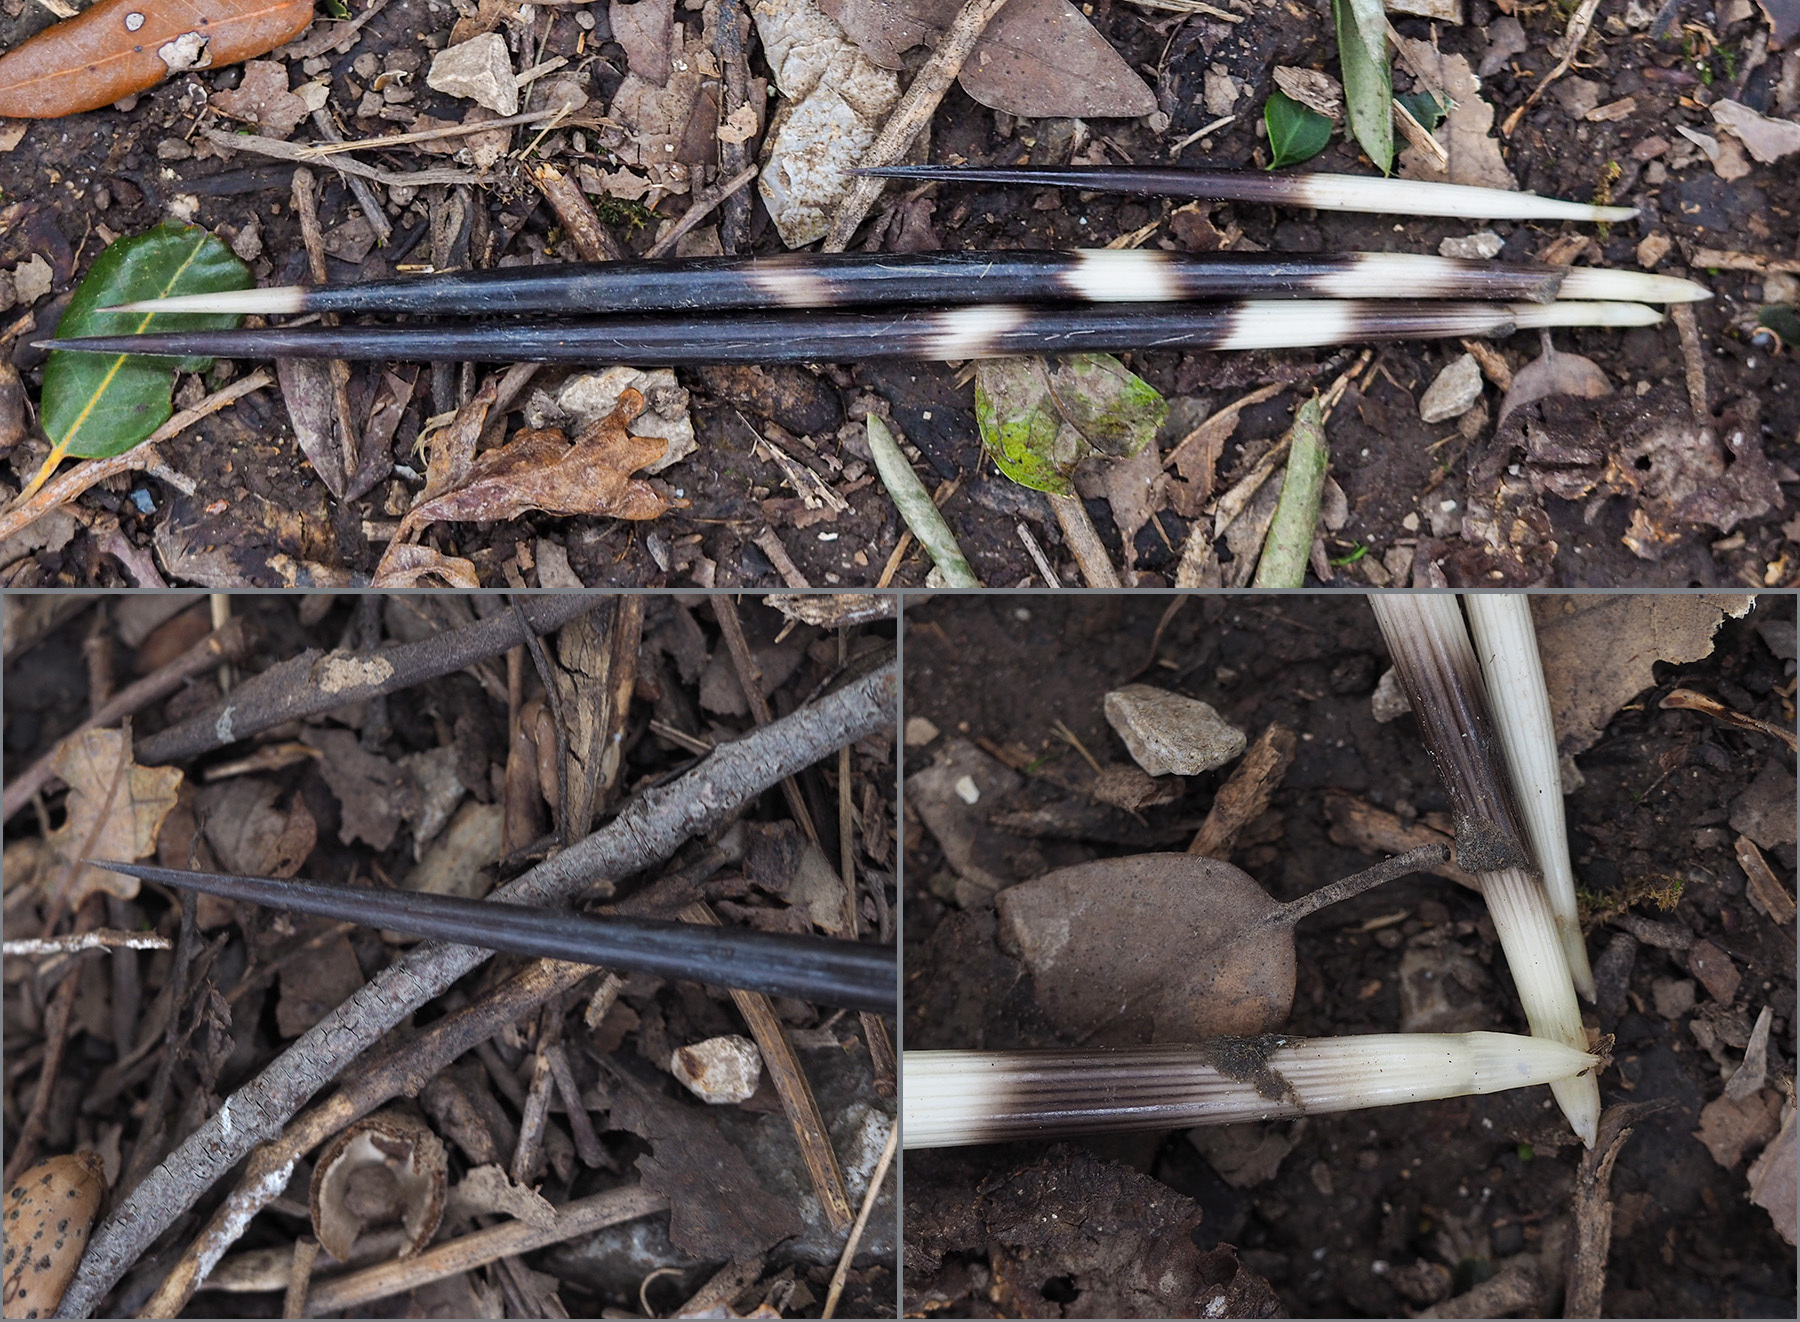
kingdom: Animalia
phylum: Chordata
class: Mammalia
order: Rodentia
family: Hystricidae
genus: Hystrix
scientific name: Hystrix cristata
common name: Crested porcupine
